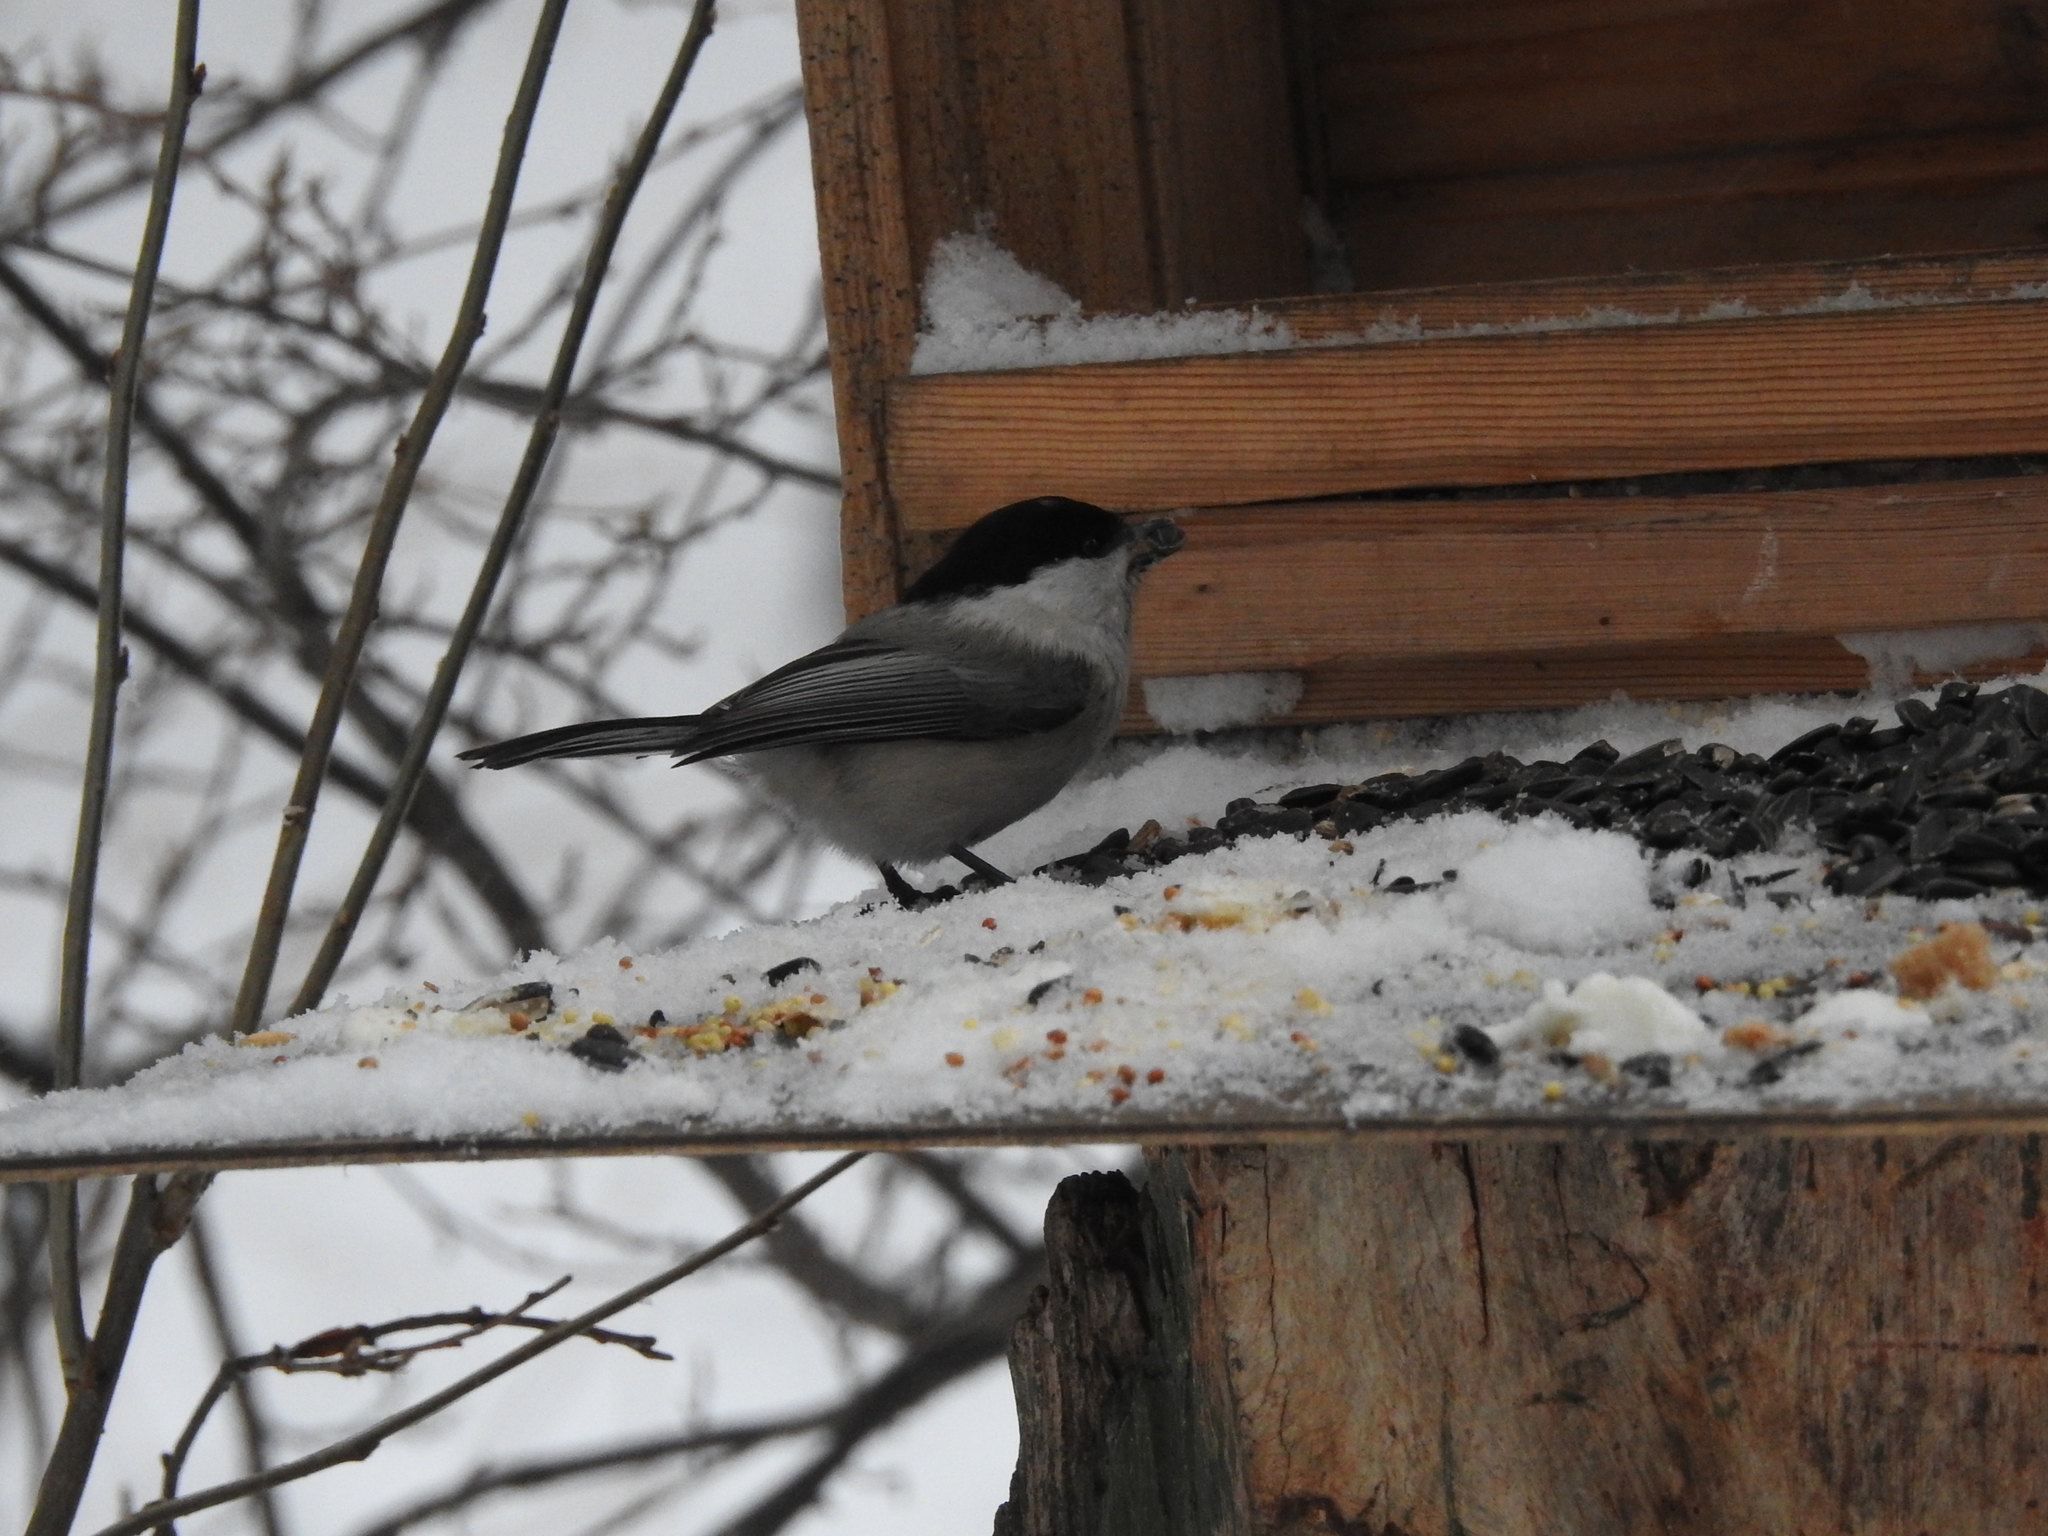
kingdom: Animalia
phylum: Chordata
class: Aves
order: Passeriformes
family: Paridae
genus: Poecile
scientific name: Poecile montanus
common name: Willow tit
